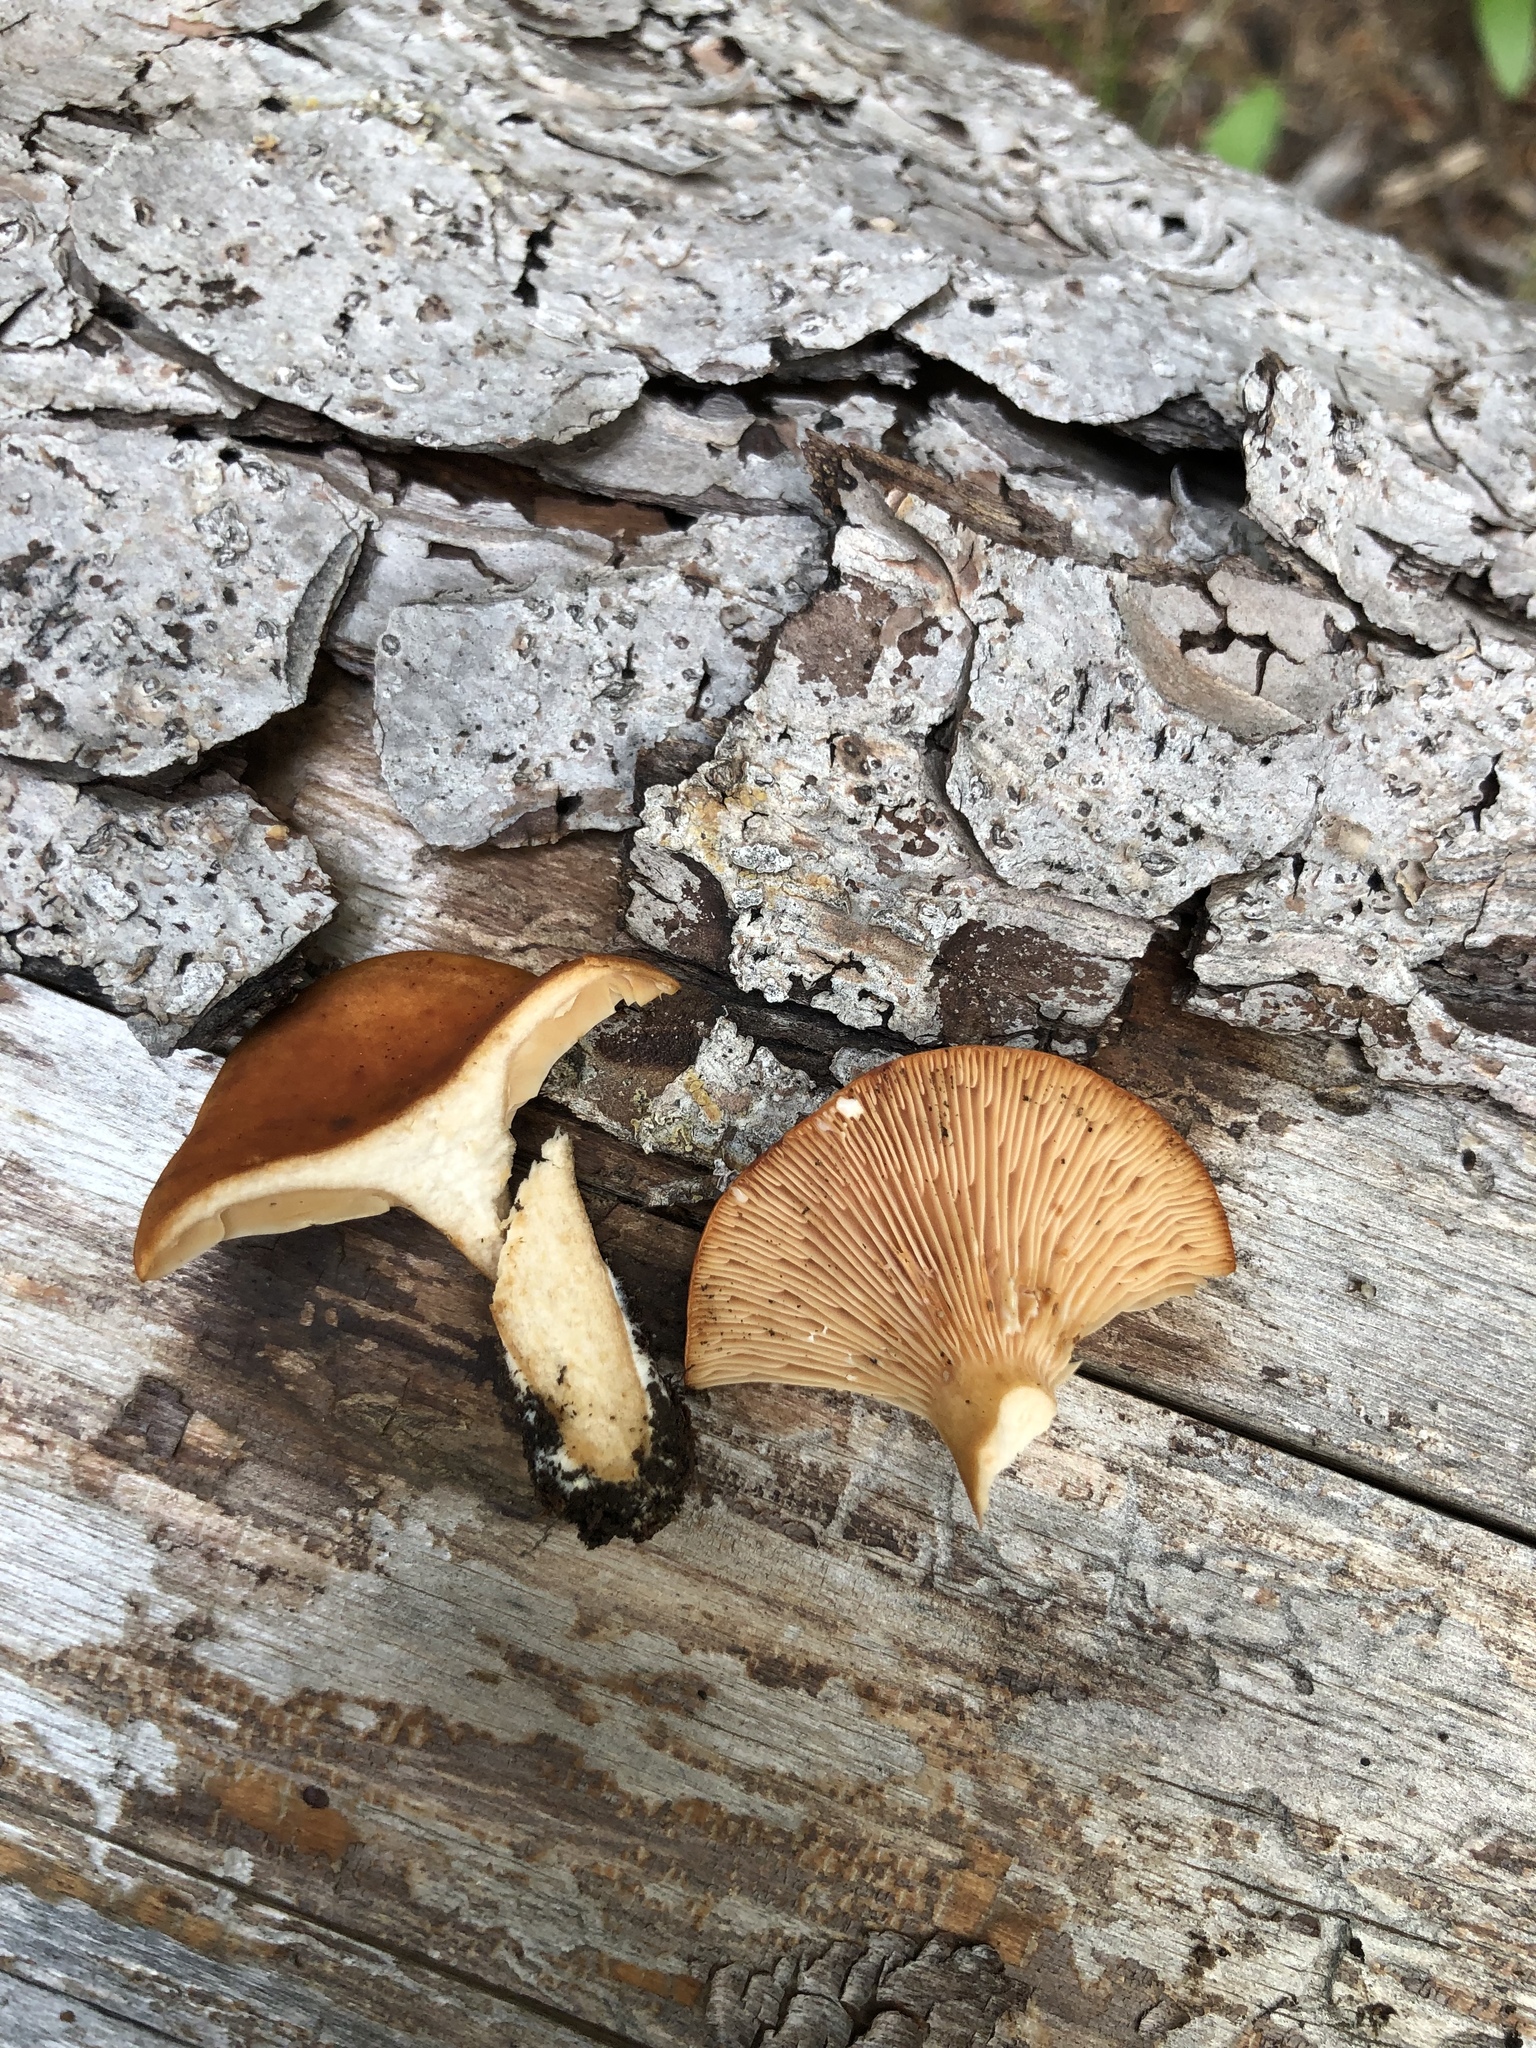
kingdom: Fungi
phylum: Basidiomycota
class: Agaricomycetes
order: Russulales
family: Russulaceae
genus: Lactarius
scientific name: Lactarius luculentus
